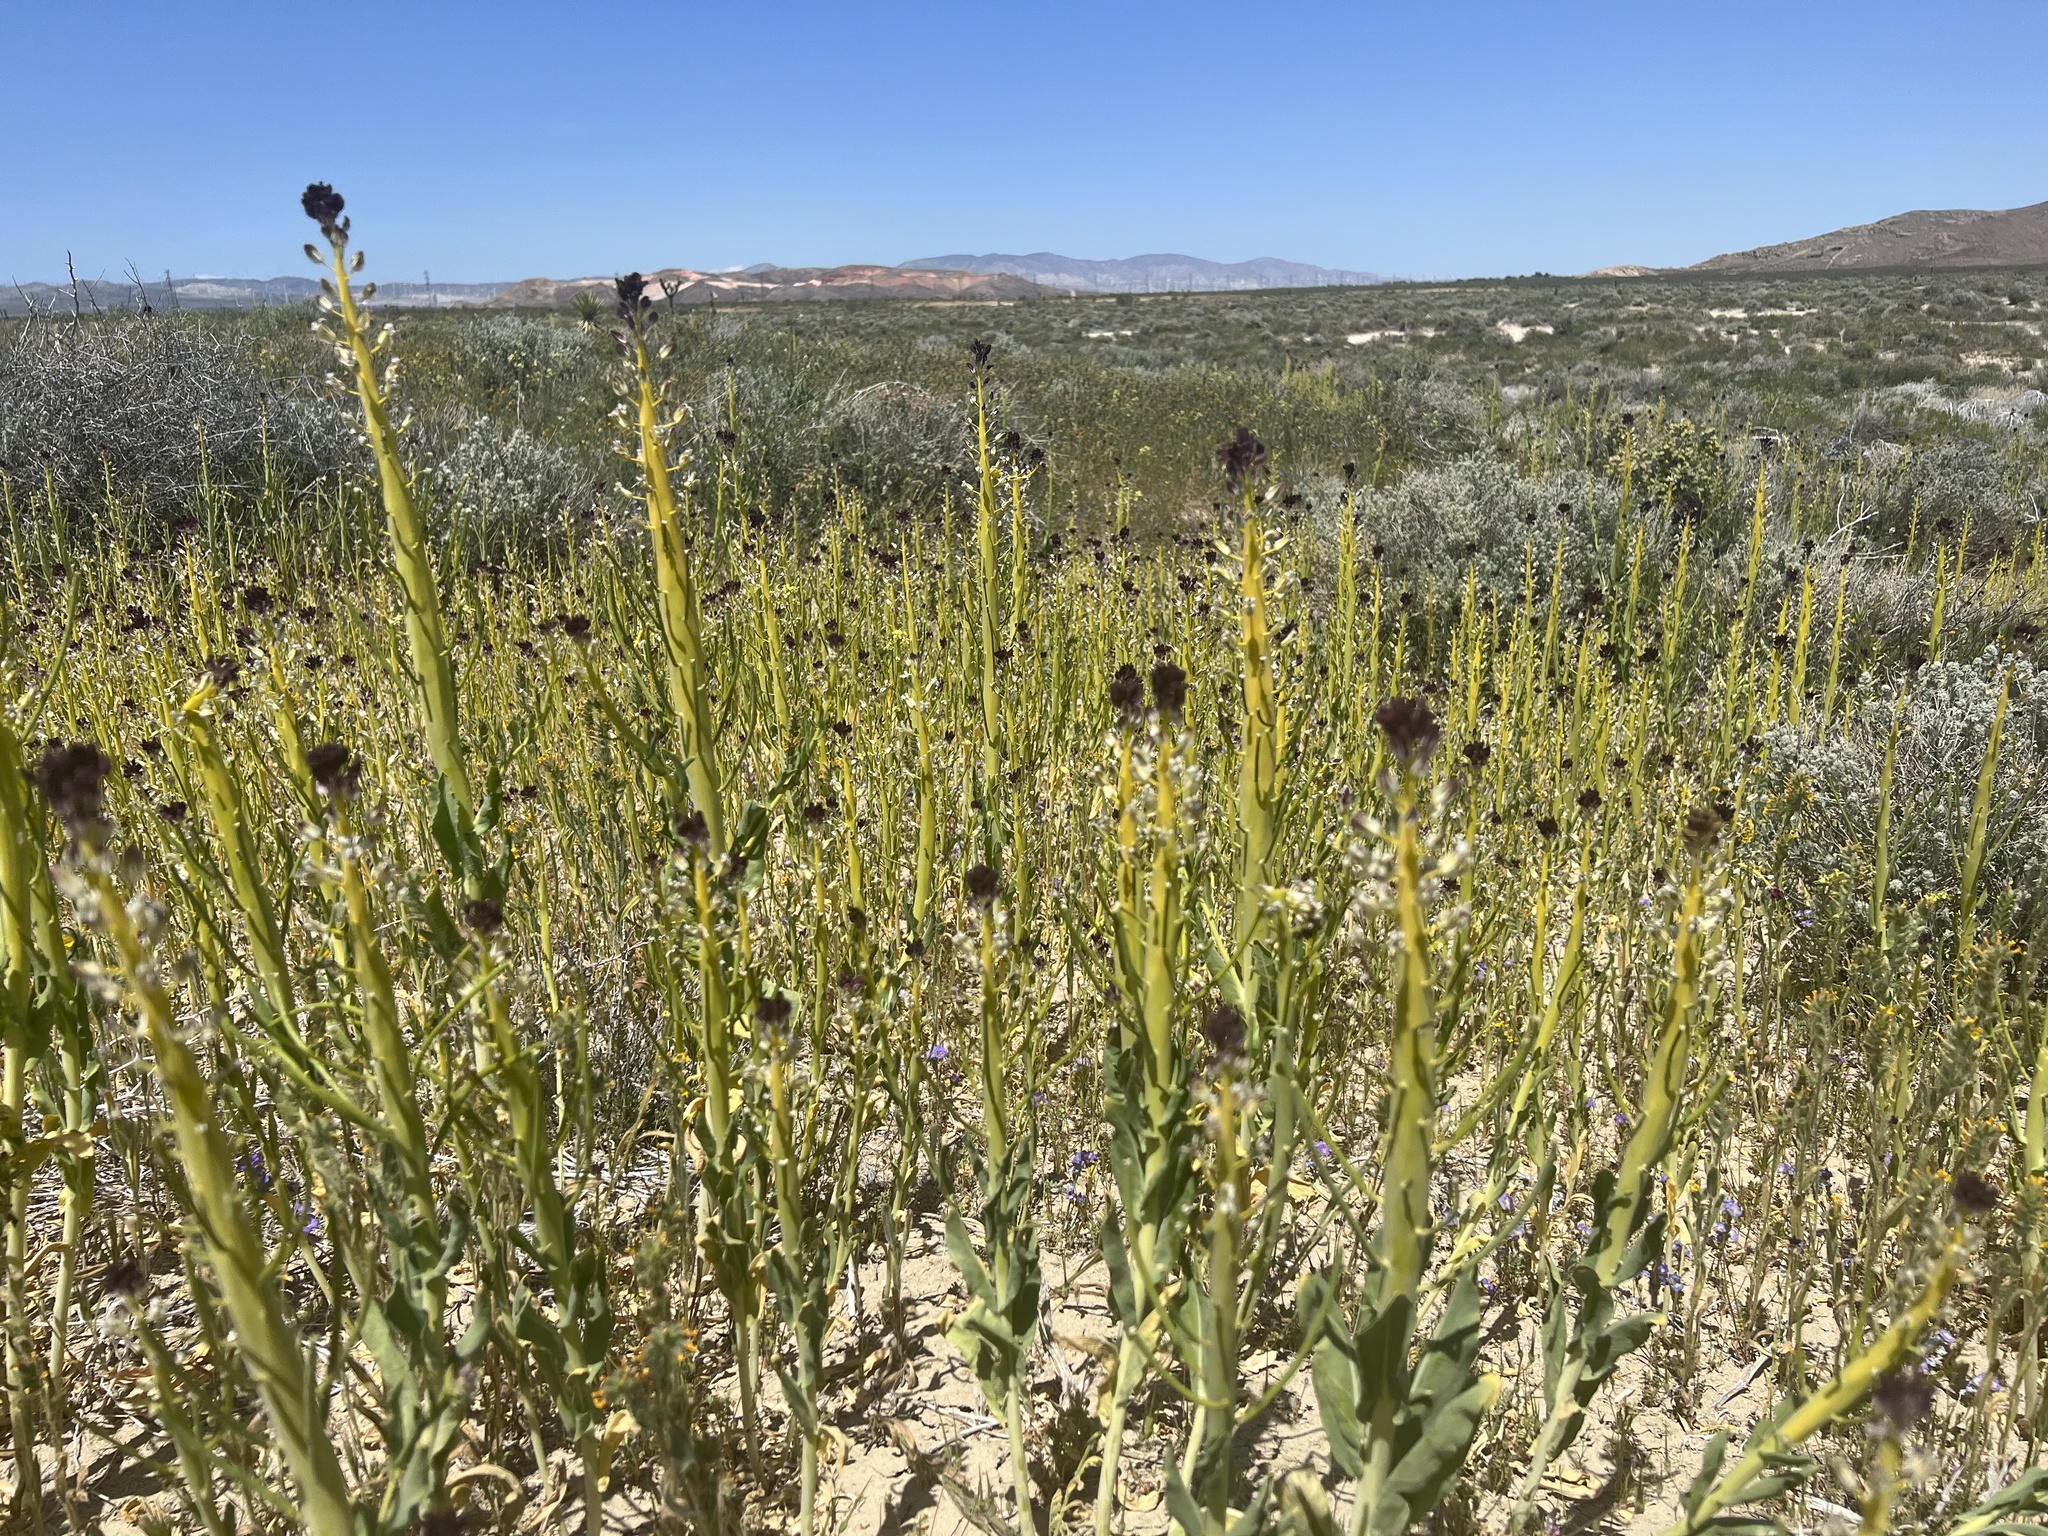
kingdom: Plantae
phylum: Tracheophyta
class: Magnoliopsida
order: Brassicales
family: Brassicaceae
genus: Streptanthus
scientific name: Streptanthus inflatus
